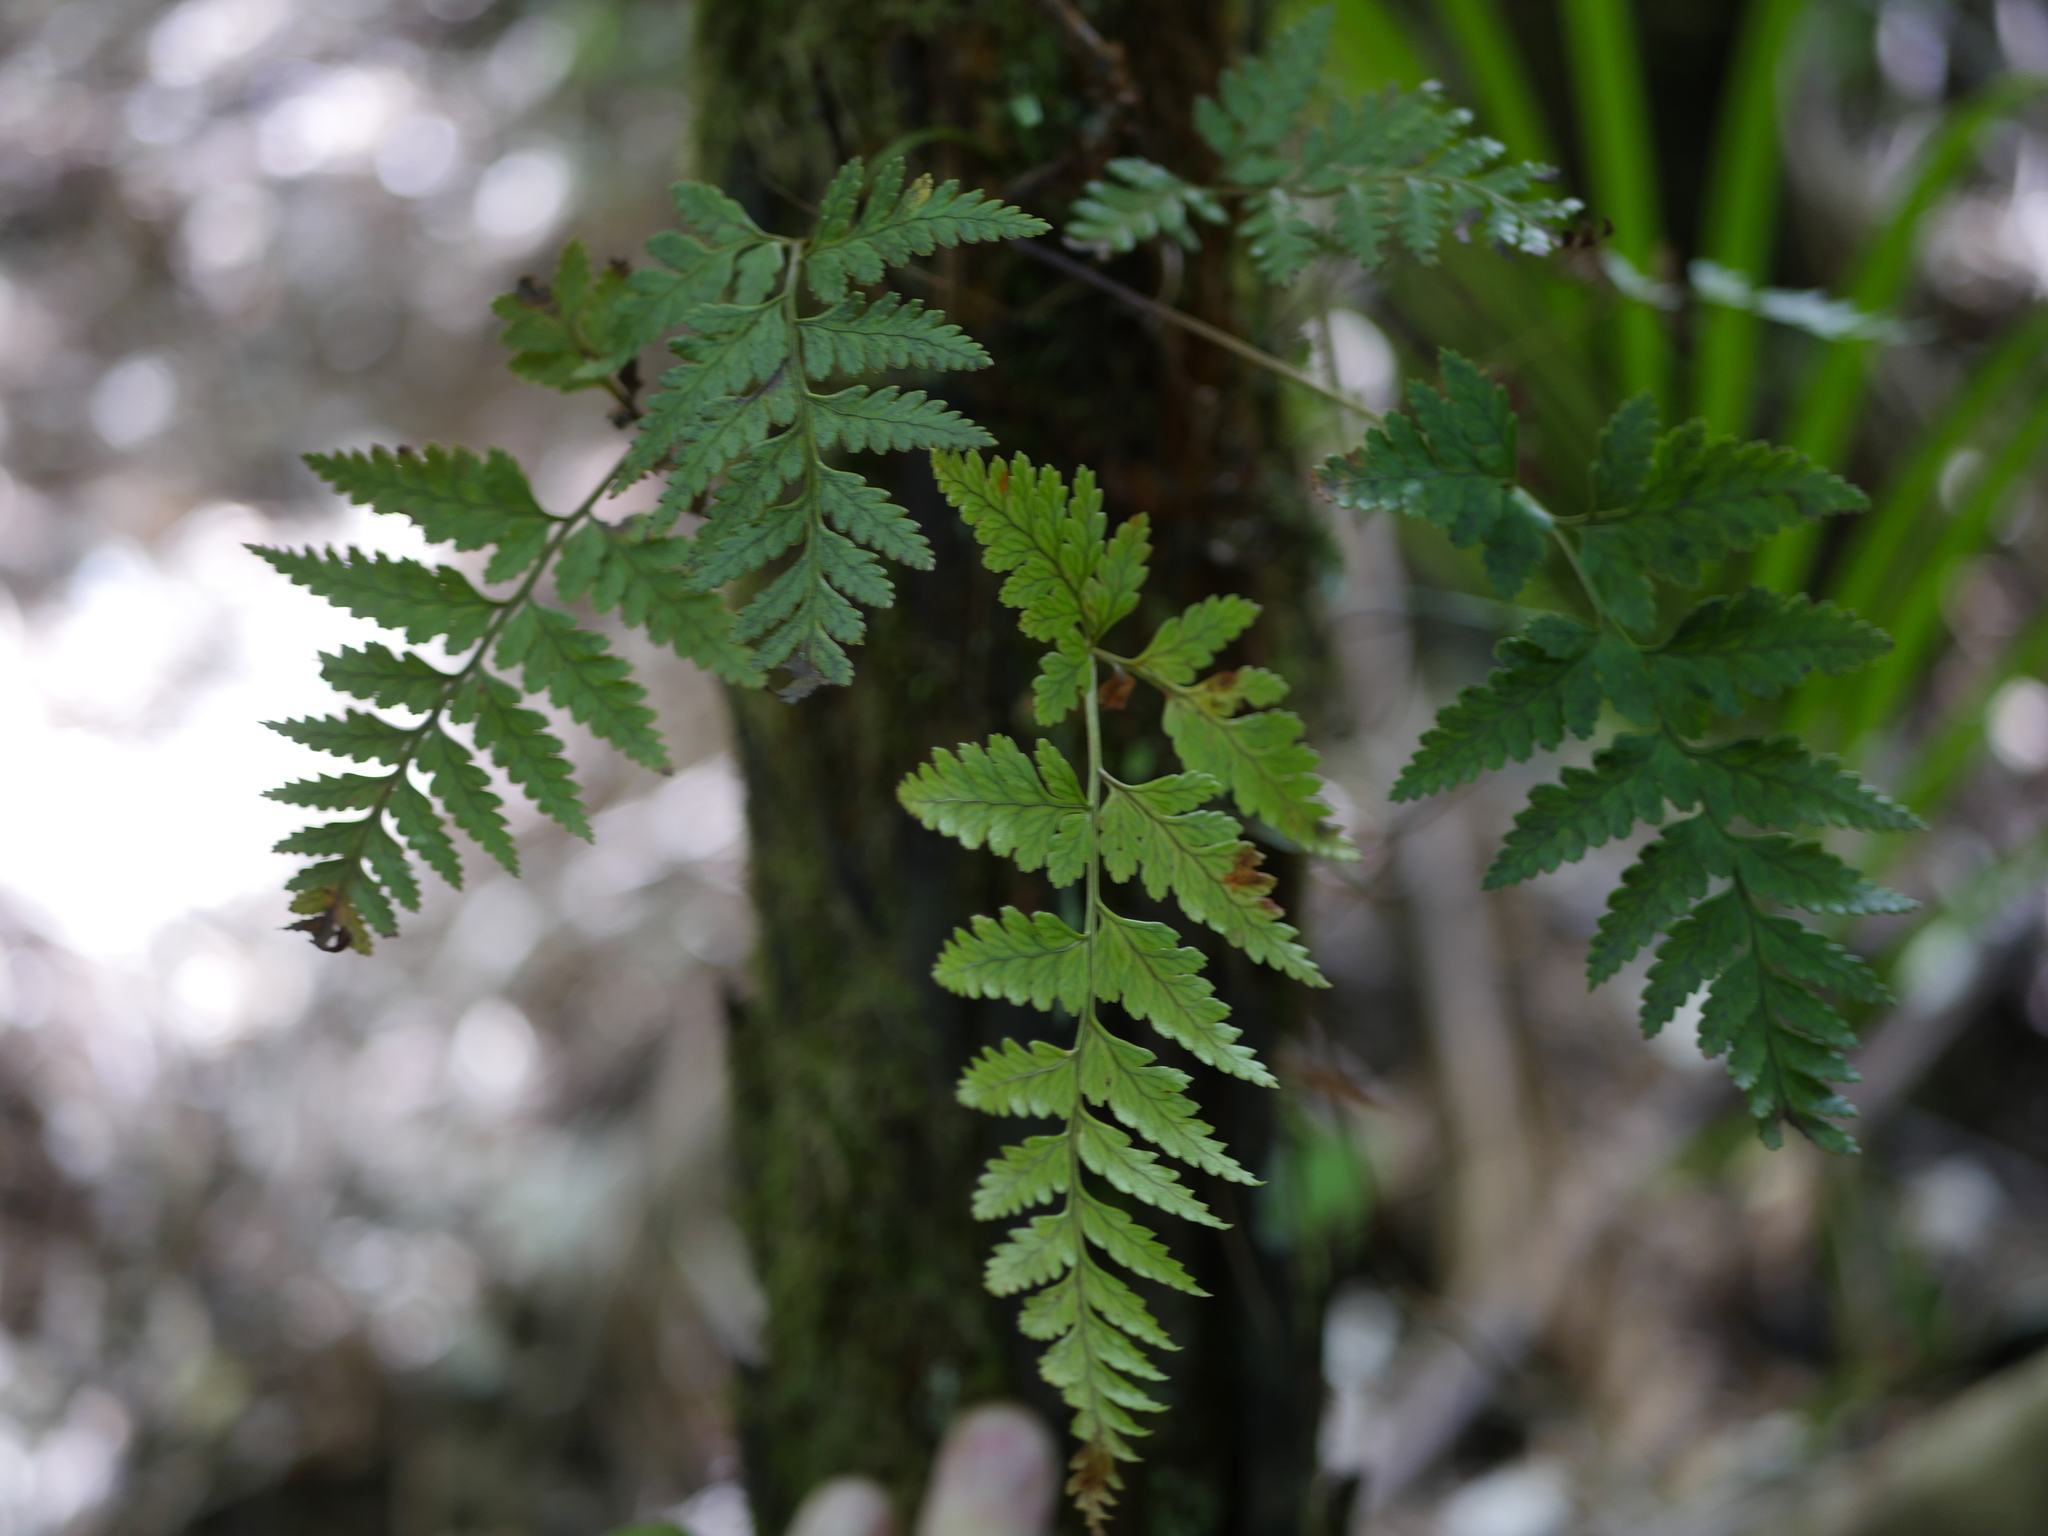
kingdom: Plantae
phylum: Tracheophyta
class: Polypodiopsida
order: Polypodiales
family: Dryopteridaceae
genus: Rumohra
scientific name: Rumohra adiantiformis
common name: Leather fern
